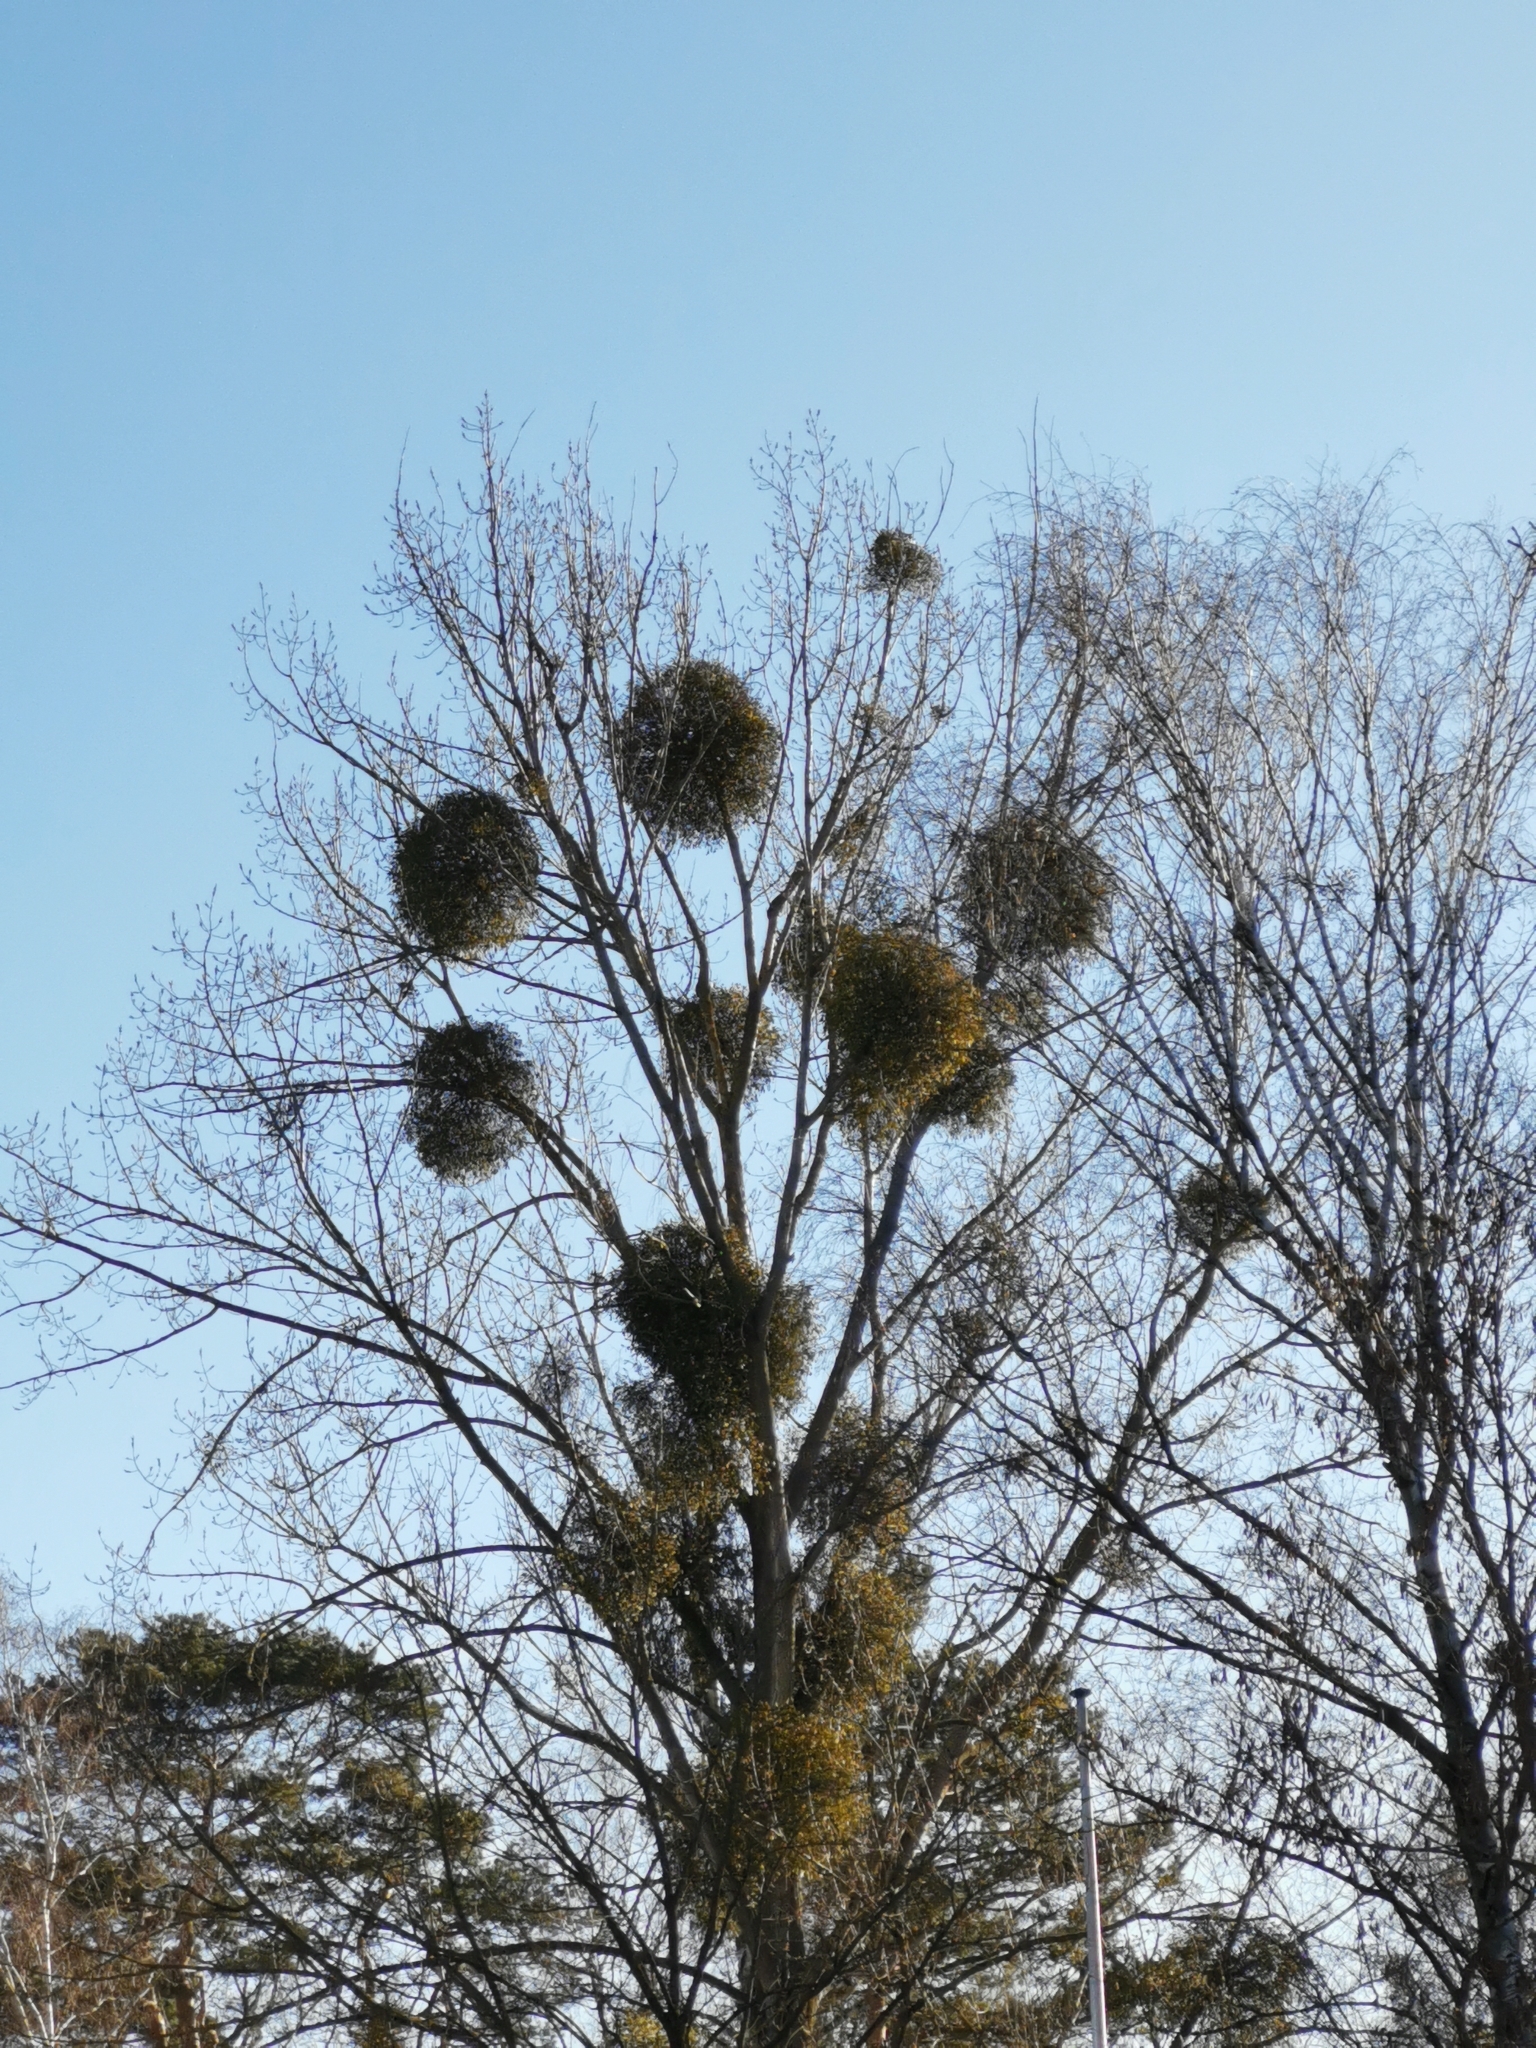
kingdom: Plantae
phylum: Tracheophyta
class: Magnoliopsida
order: Santalales
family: Viscaceae
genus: Viscum
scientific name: Viscum album
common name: Mistletoe
